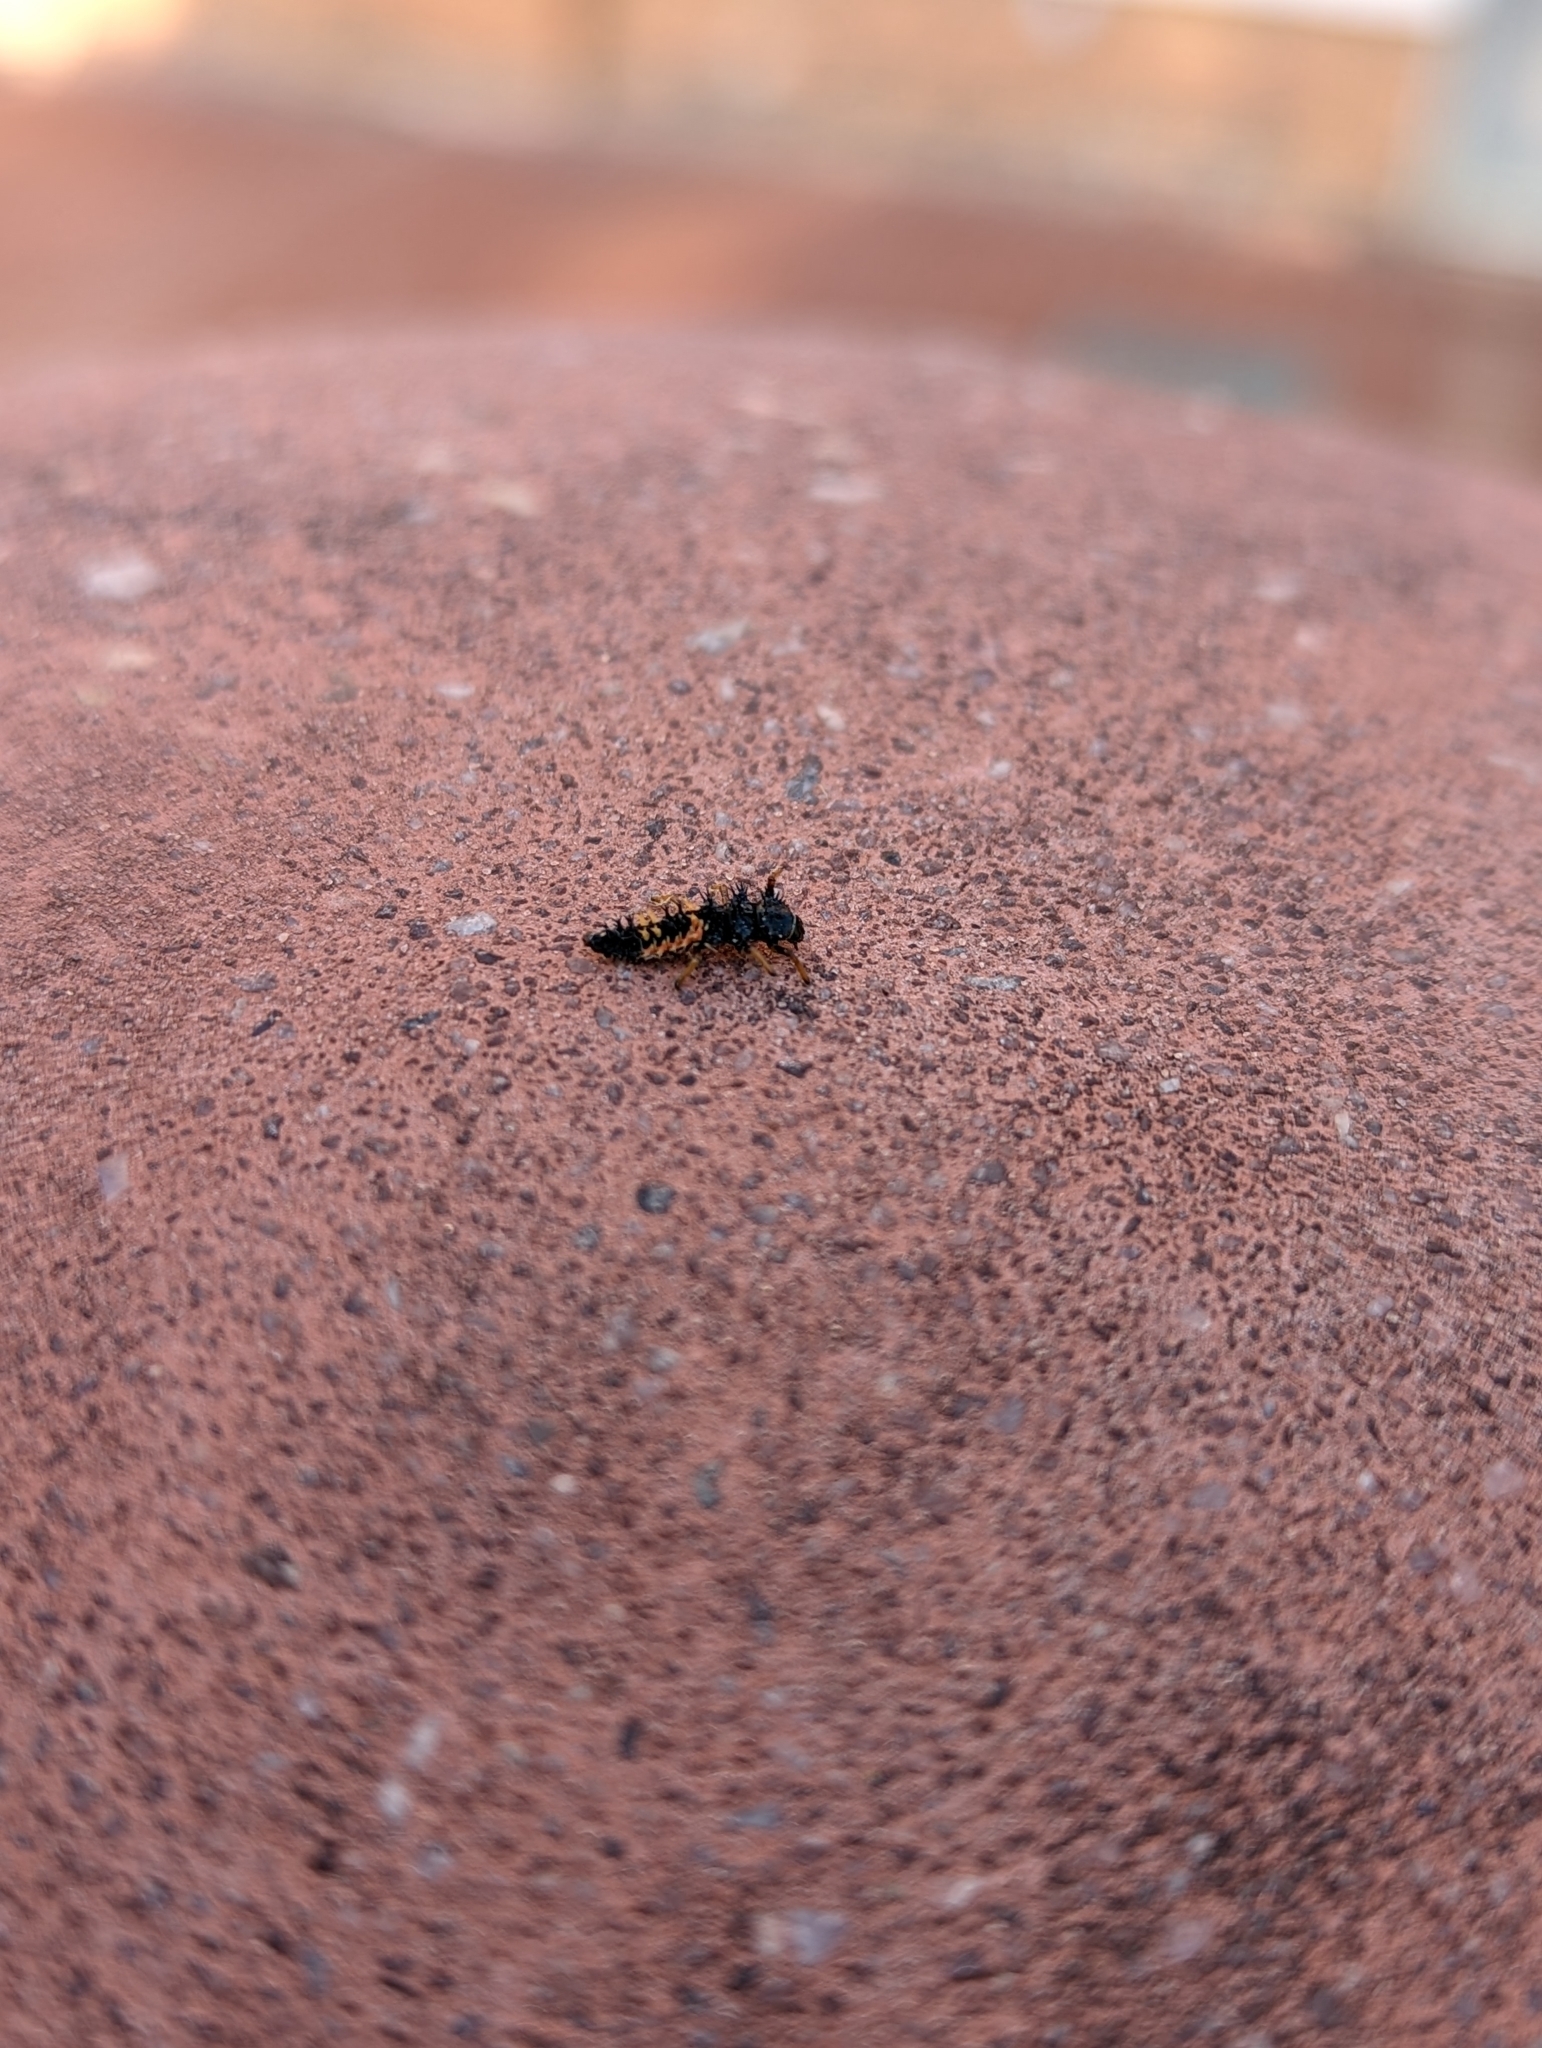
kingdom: Animalia
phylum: Arthropoda
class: Insecta
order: Coleoptera
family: Coccinellidae
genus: Harmonia
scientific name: Harmonia axyridis
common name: Harlequin ladybird
